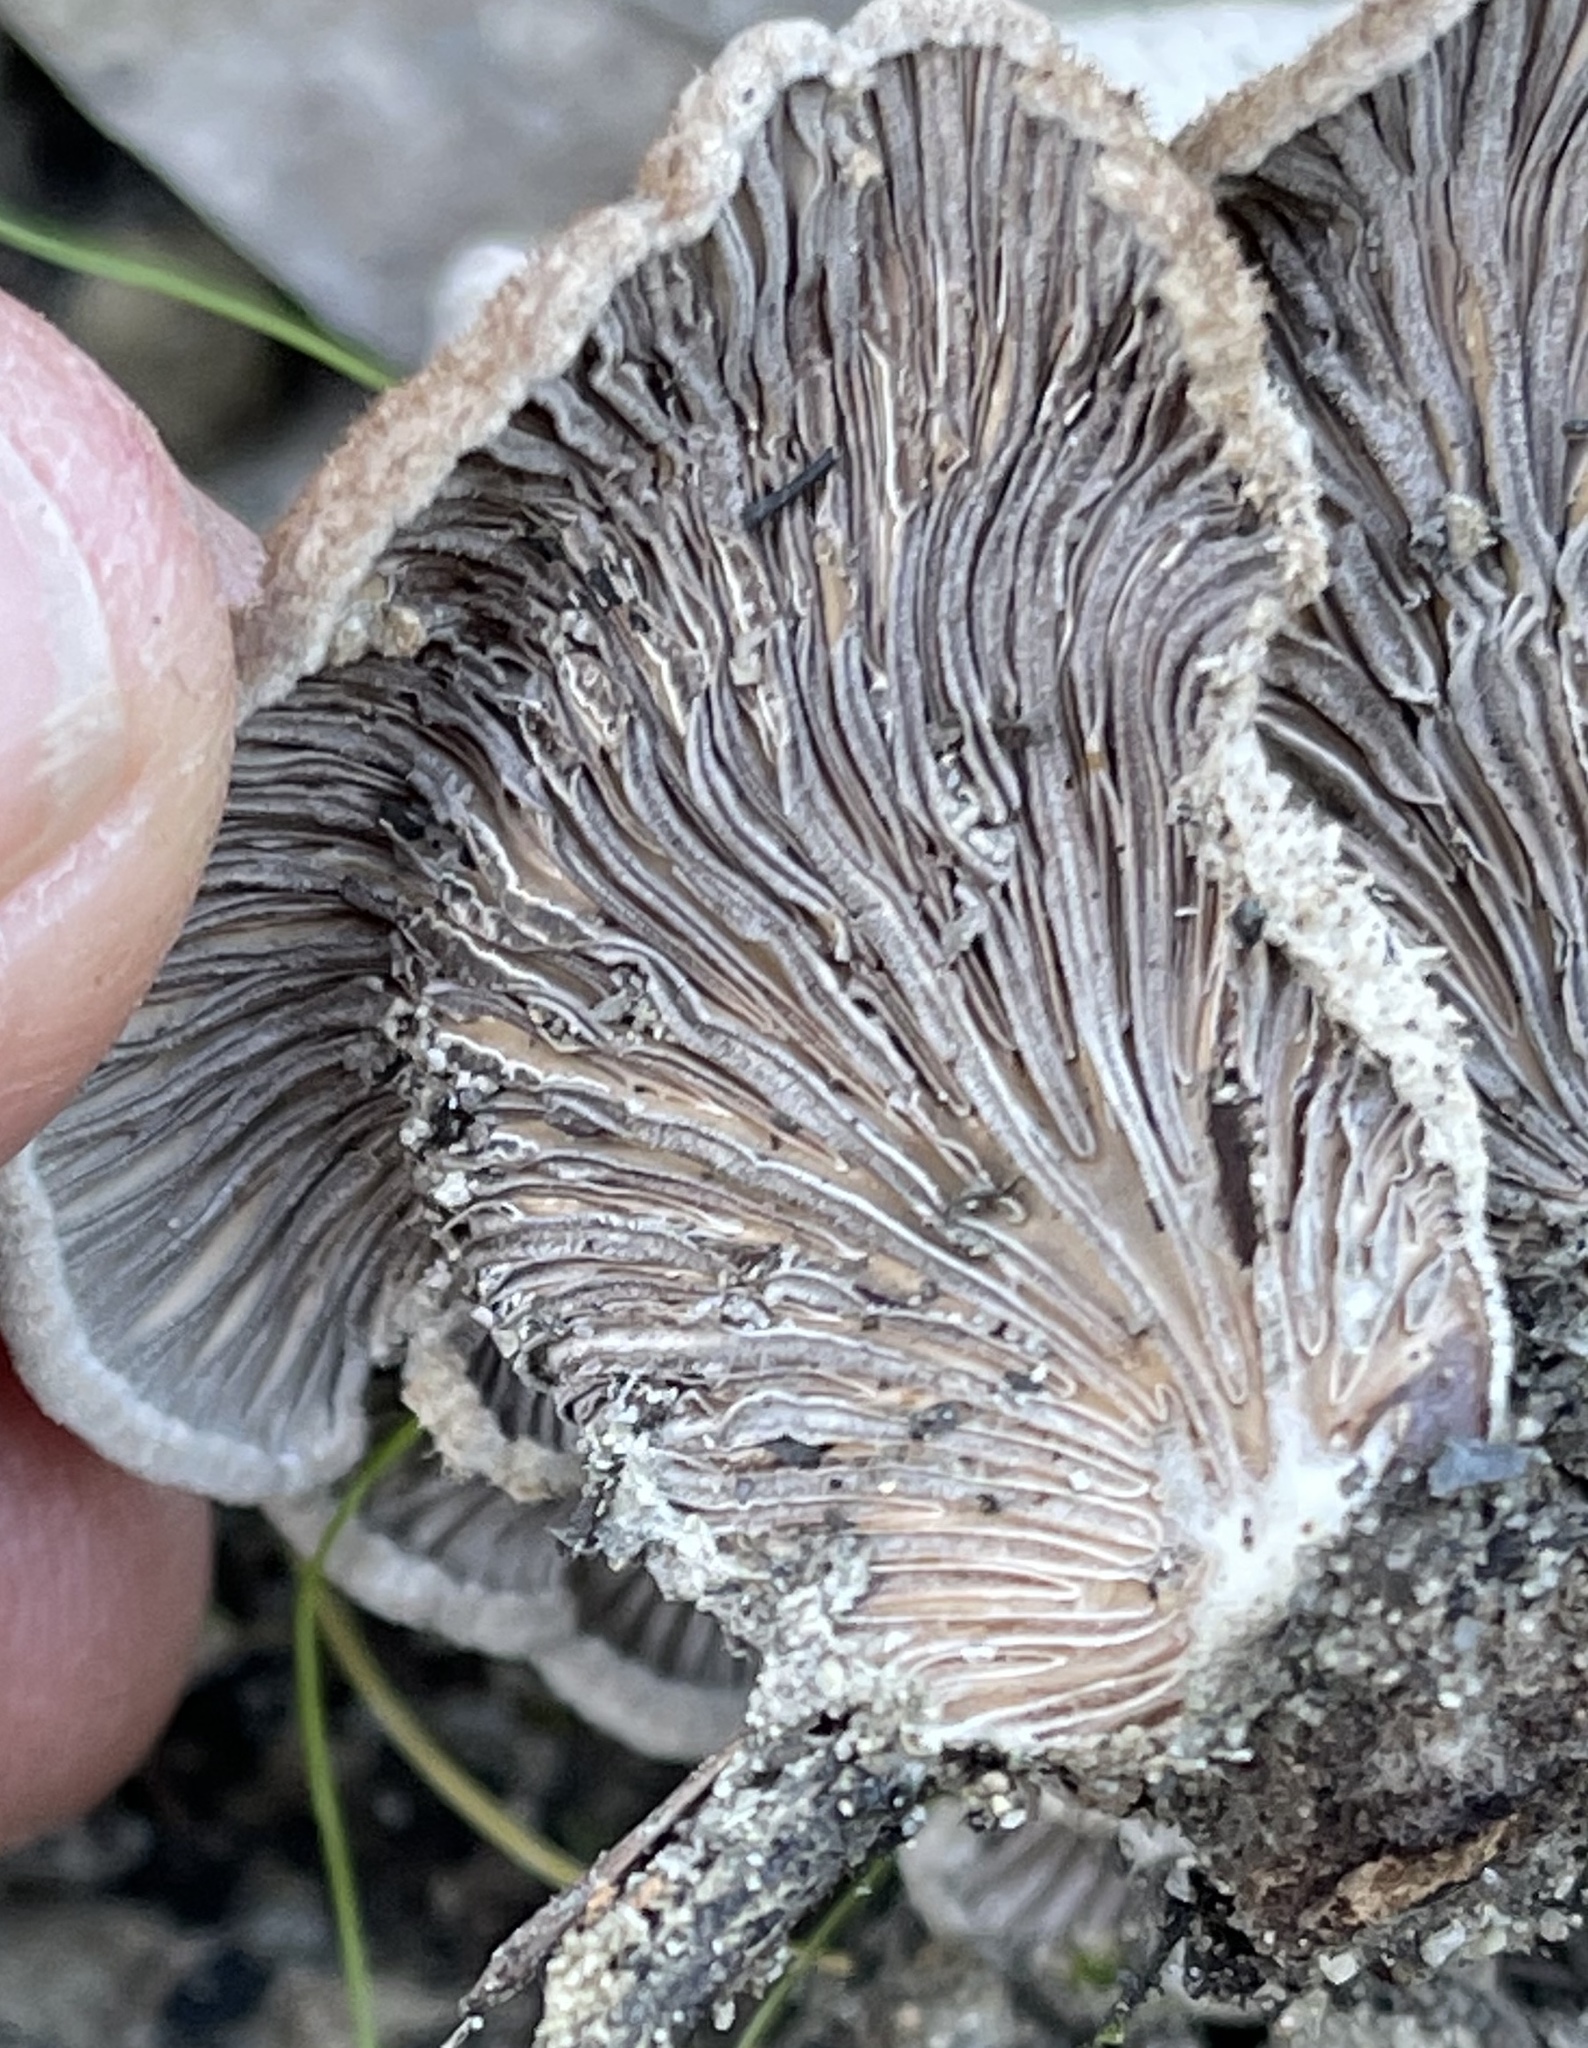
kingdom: Fungi
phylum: Basidiomycota
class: Agaricomycetes
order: Agaricales
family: Schizophyllaceae
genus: Schizophyllum
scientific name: Schizophyllum commune
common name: Common porecrust
